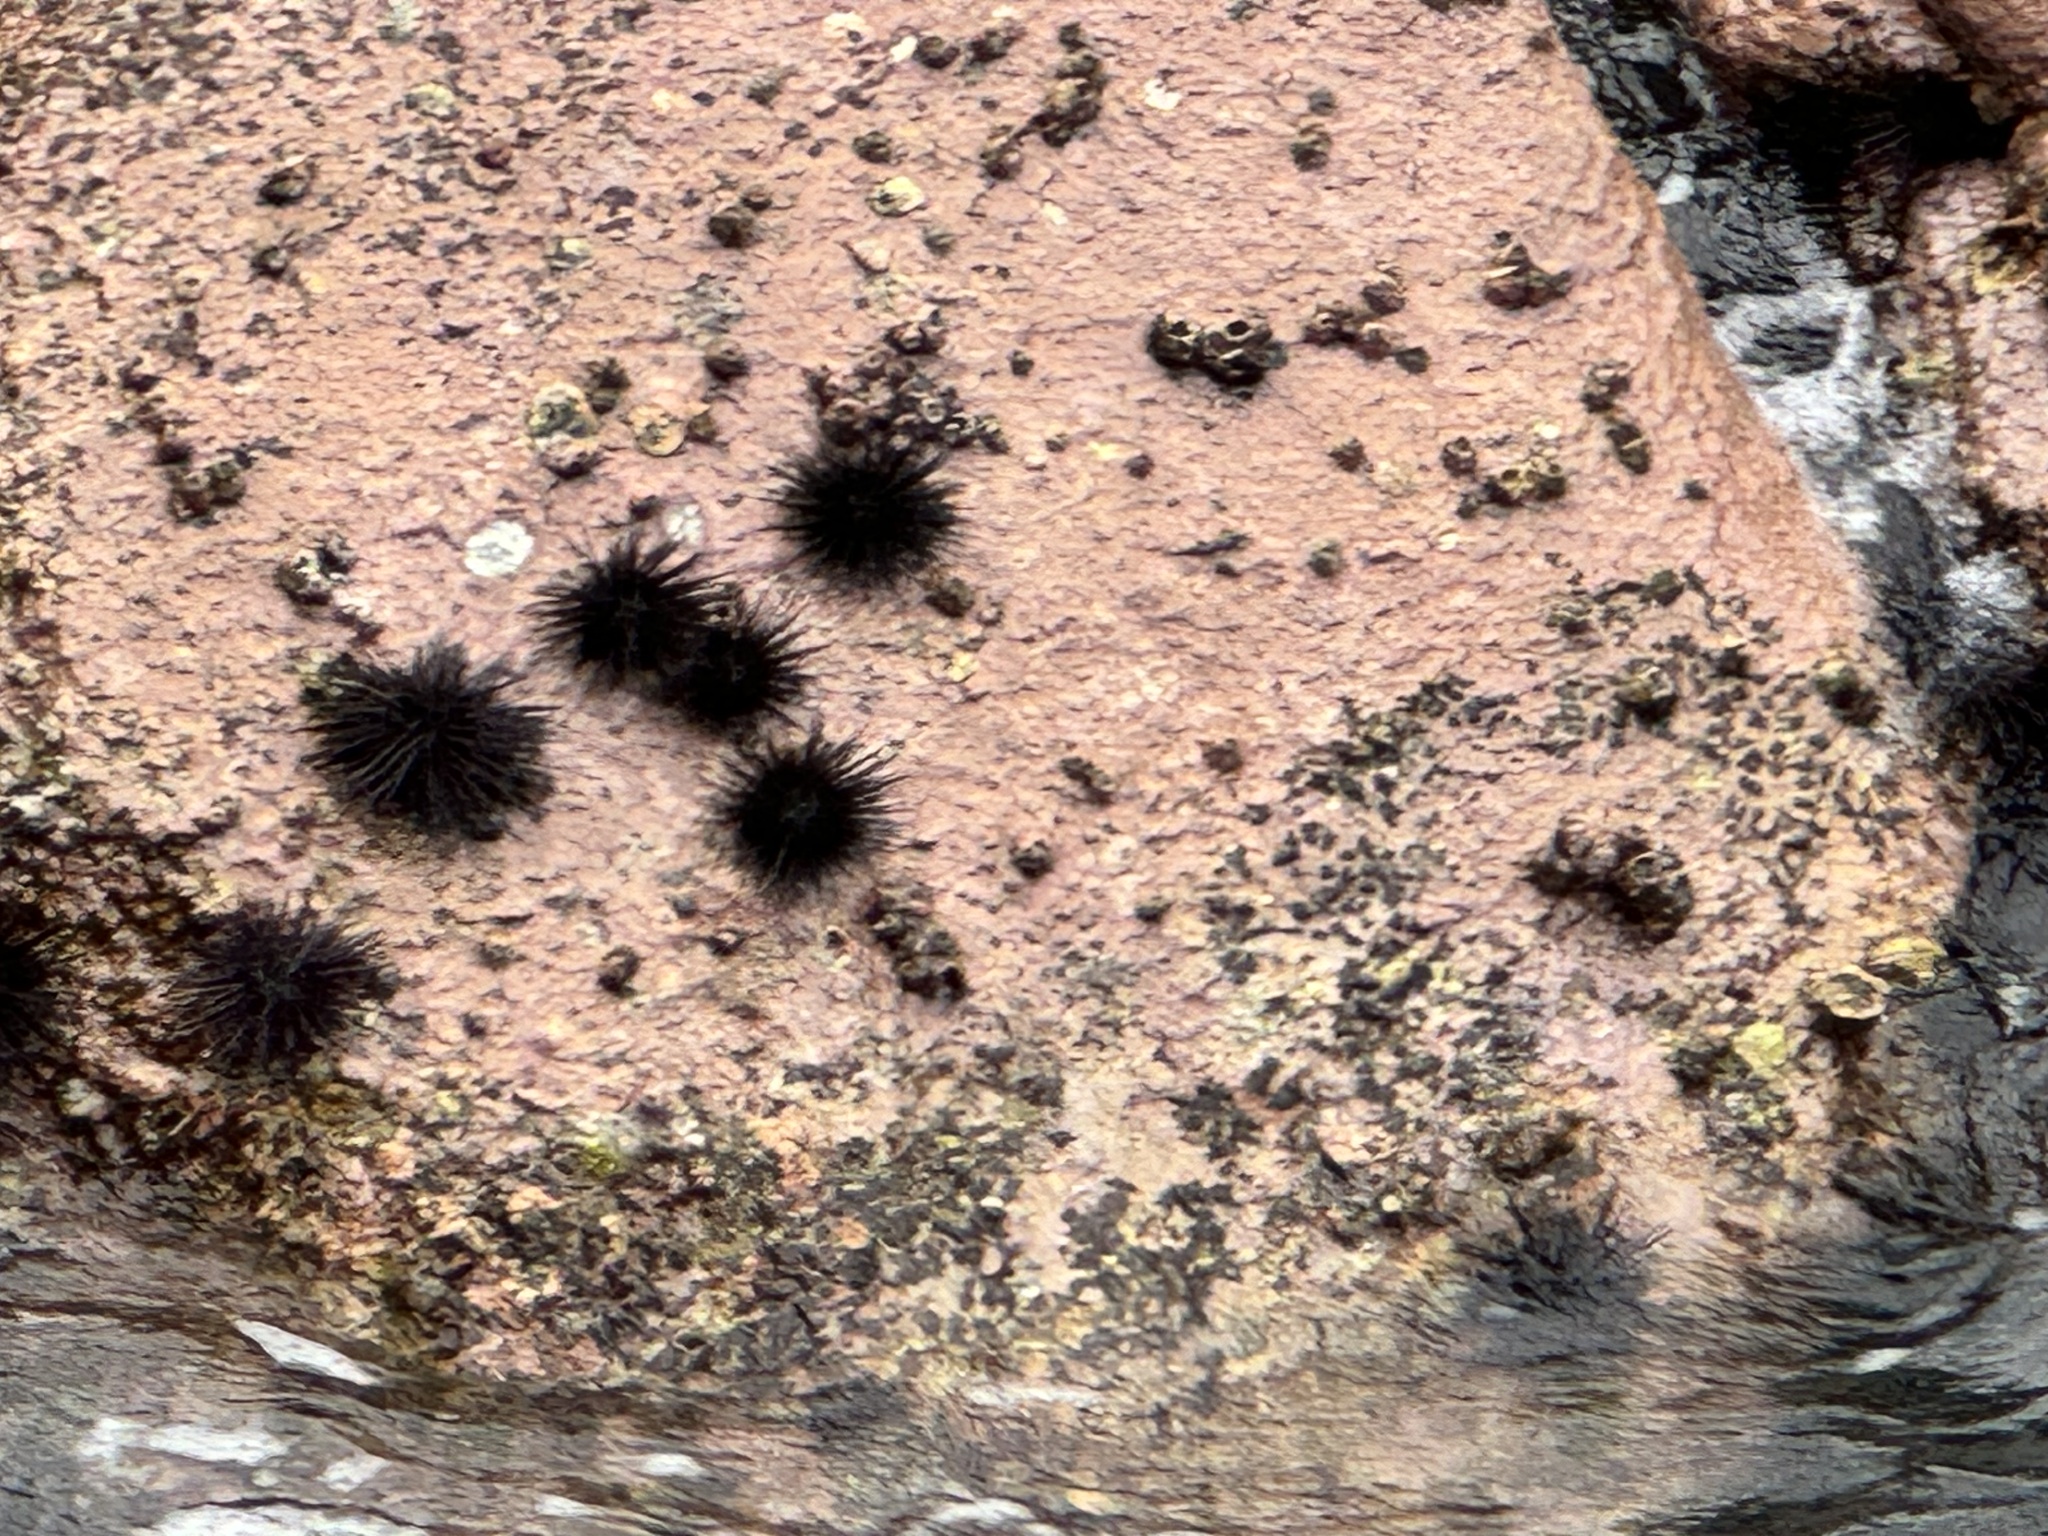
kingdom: Animalia
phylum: Echinodermata
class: Echinoidea
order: Camarodonta
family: Echinometridae
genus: Echinometra
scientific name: Echinometra vanbrunti
